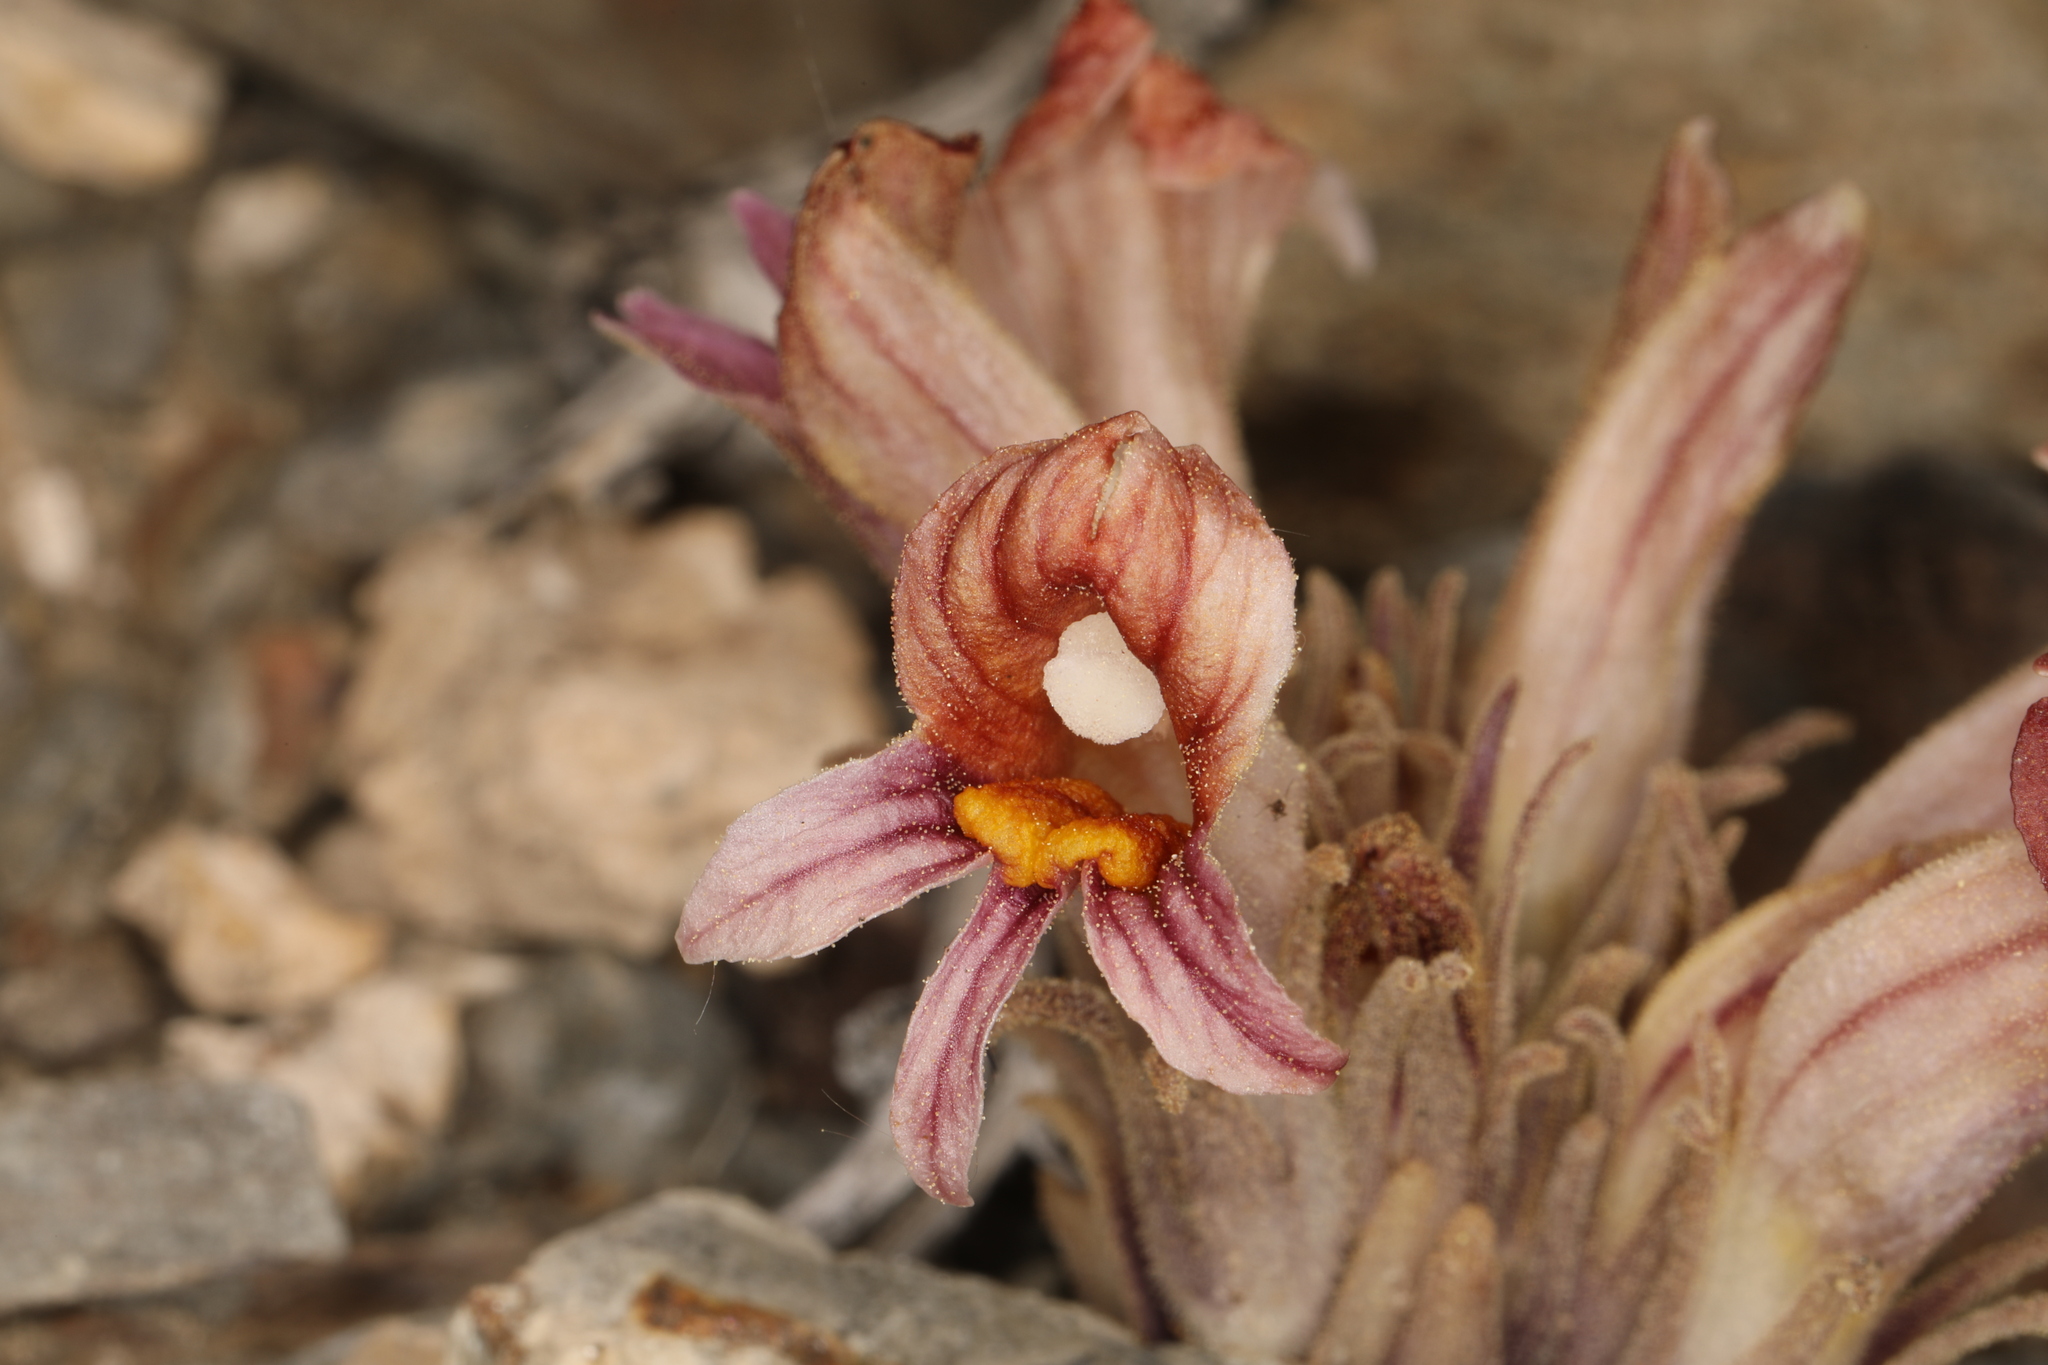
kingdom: Plantae
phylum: Tracheophyta
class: Magnoliopsida
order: Lamiales
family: Orobanchaceae
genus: Aphyllon
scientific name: Aphyllon corymbosum
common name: Flat-top broomrape
